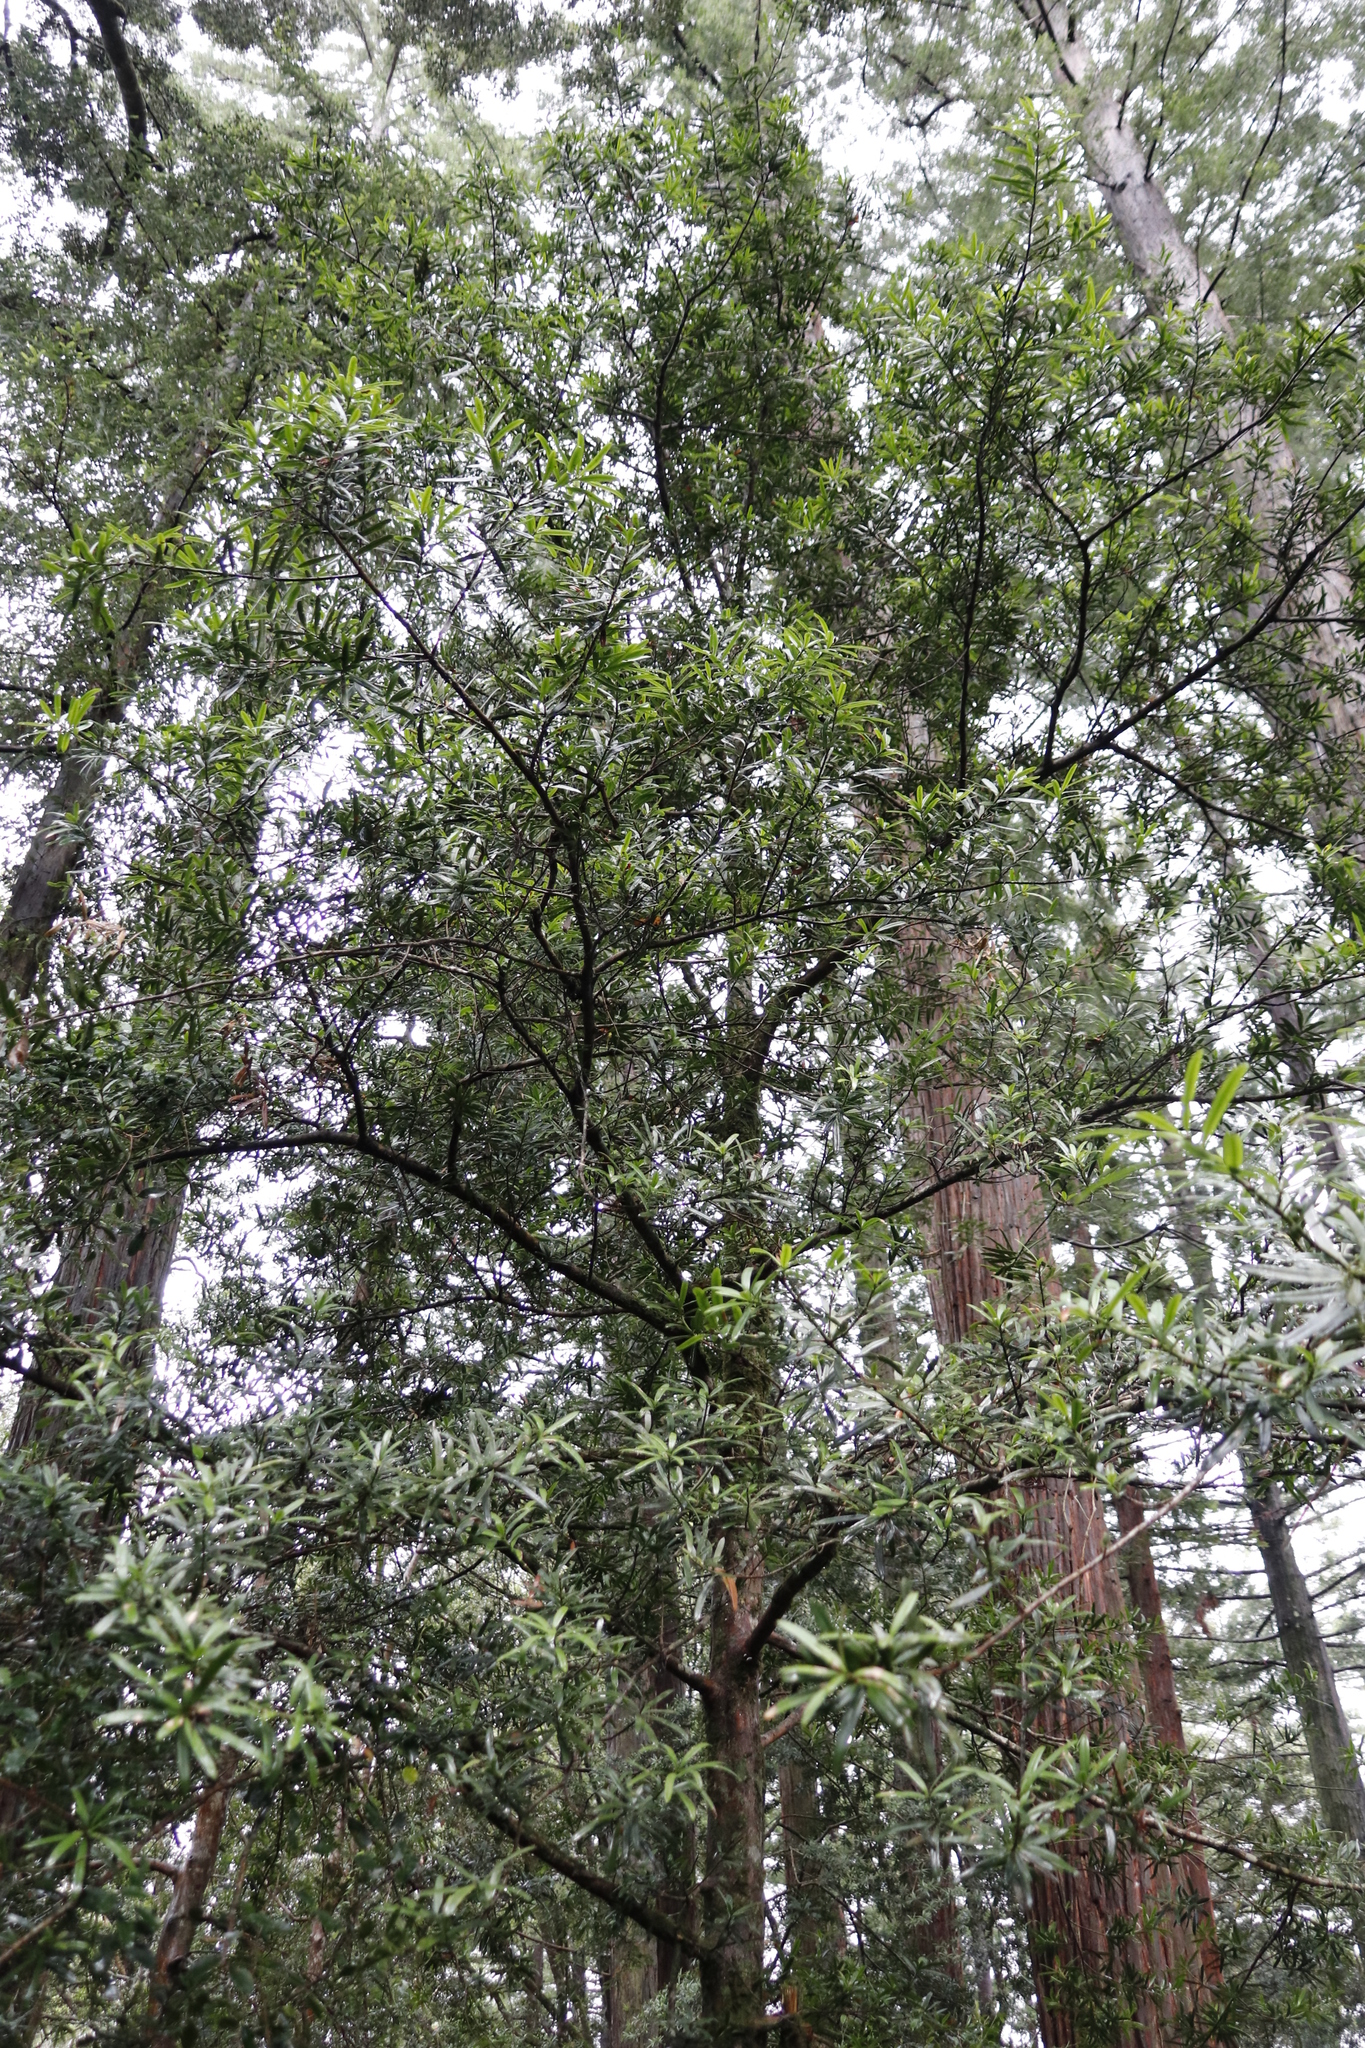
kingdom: Plantae
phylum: Tracheophyta
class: Pinopsida
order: Pinales
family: Podocarpaceae
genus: Podocarpus
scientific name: Podocarpus latifolius
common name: True yellowwood
